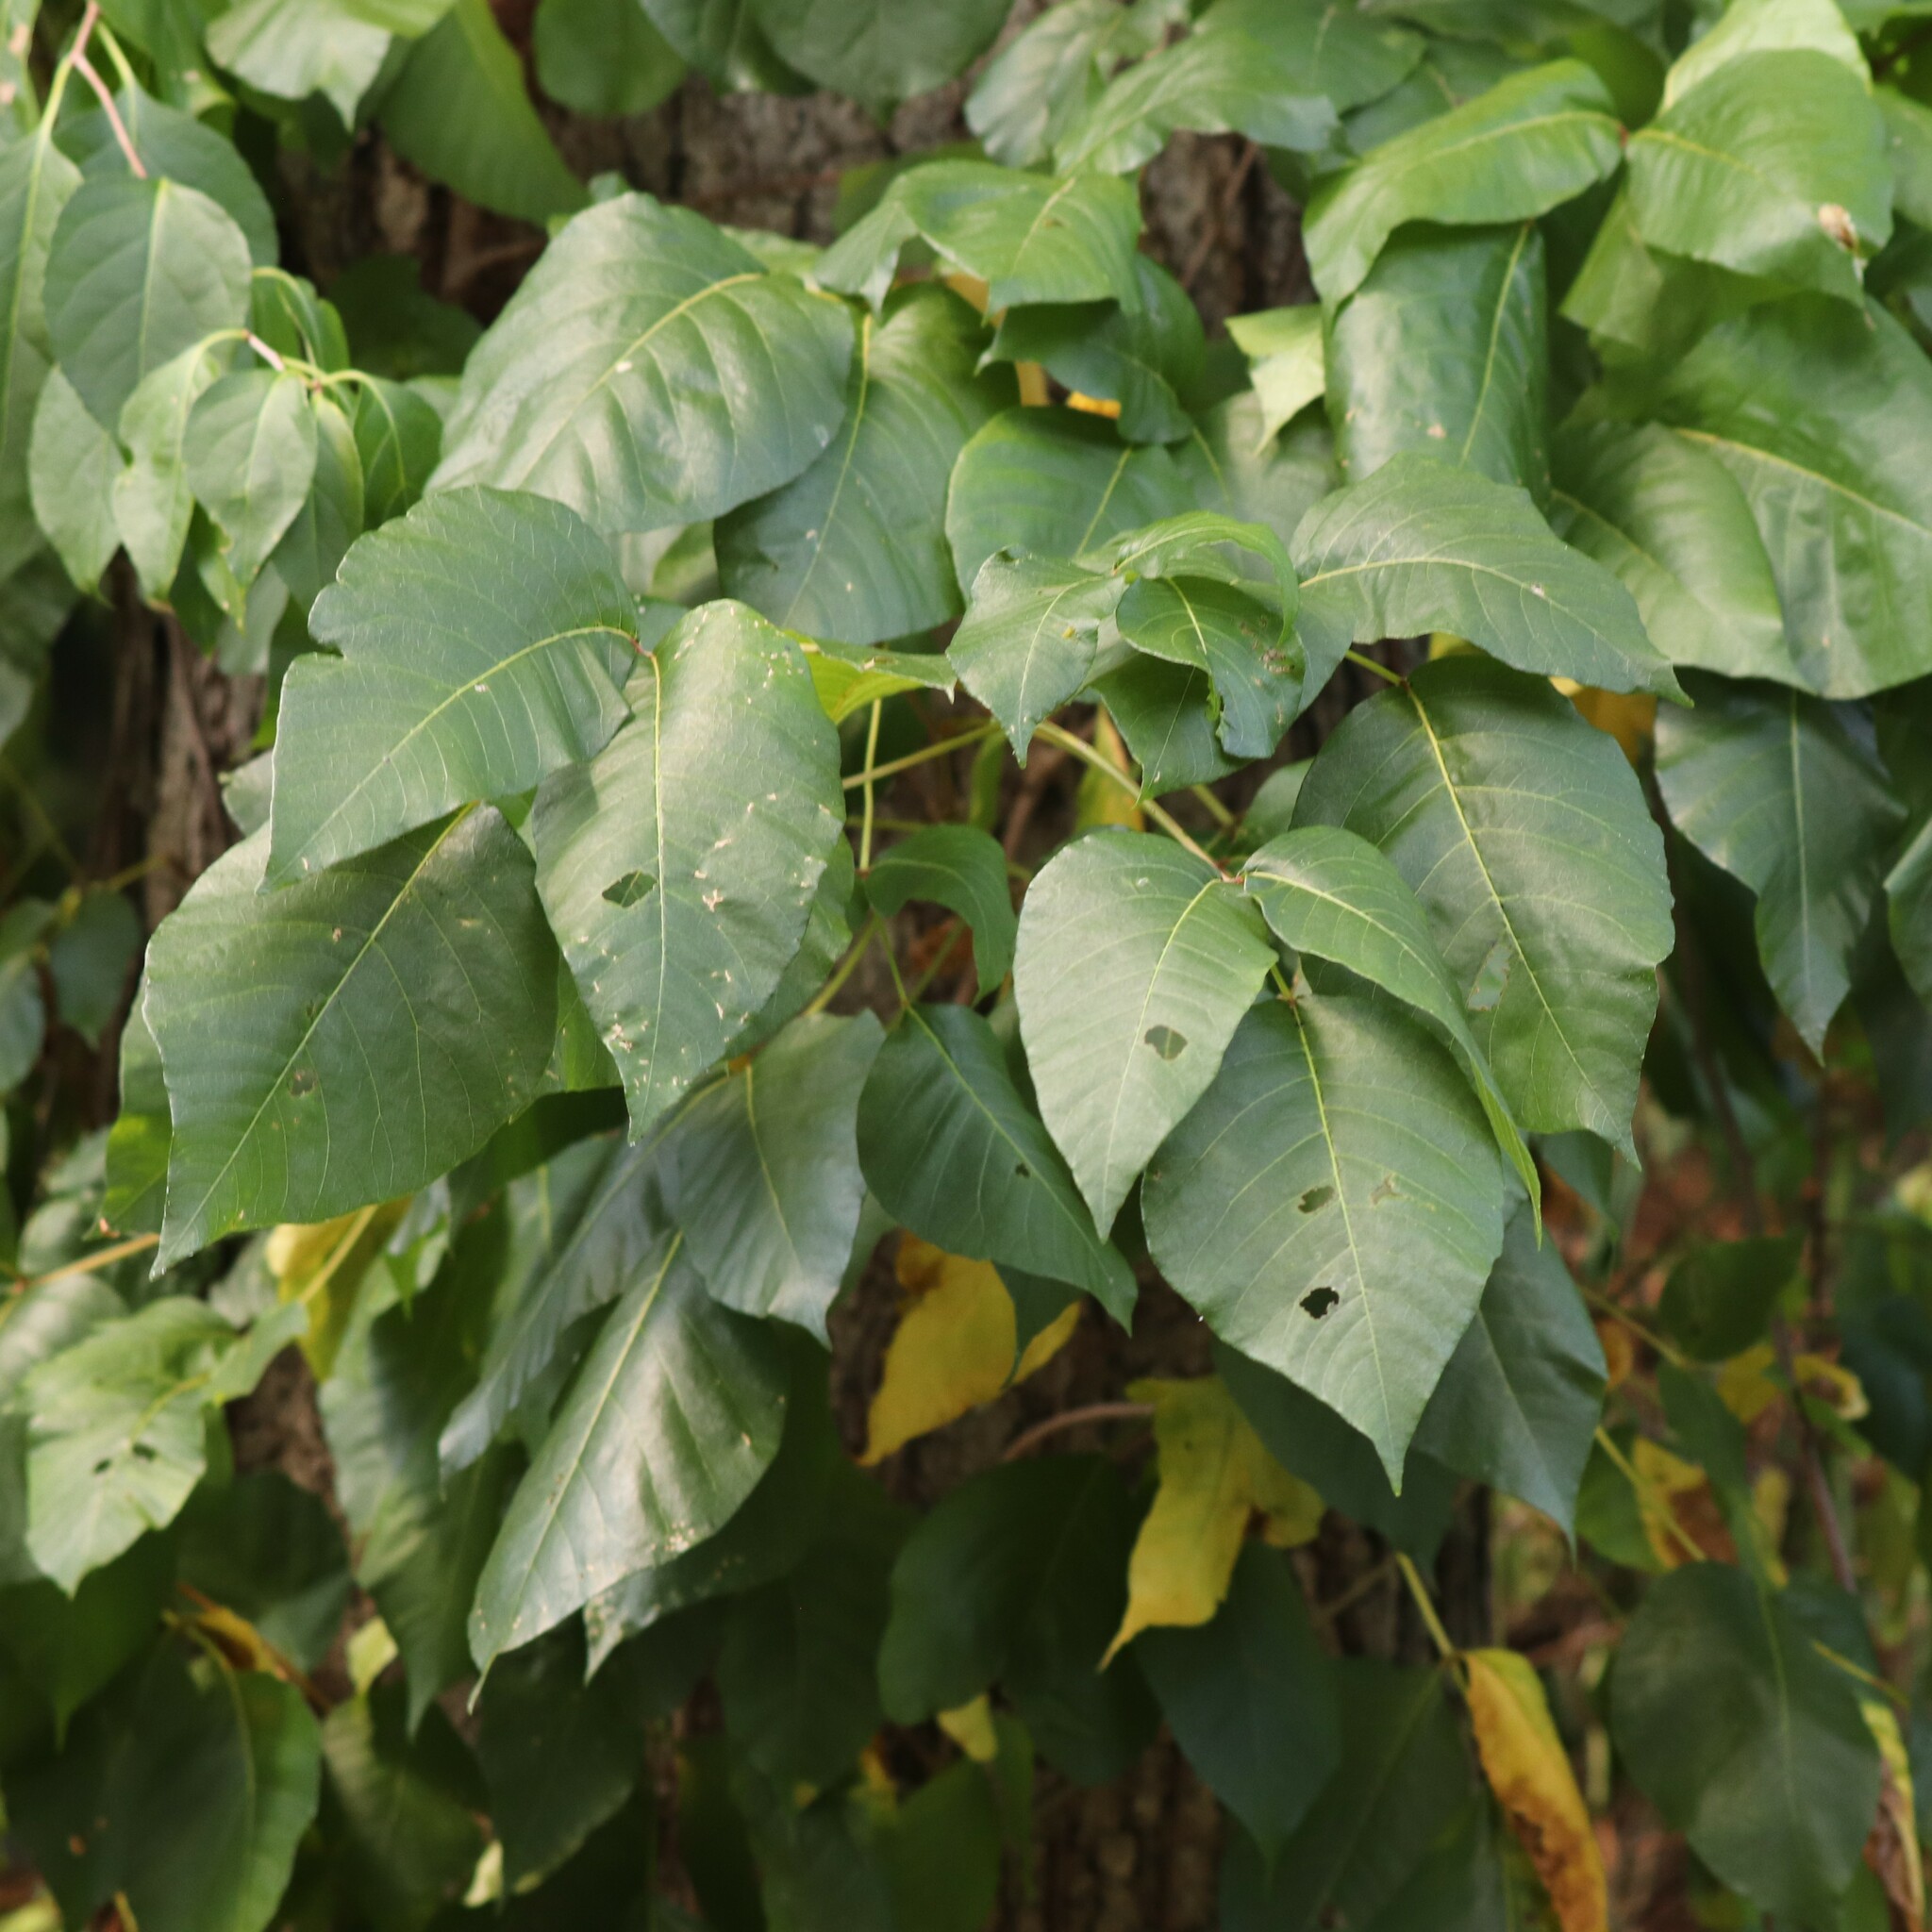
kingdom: Plantae
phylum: Tracheophyta
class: Magnoliopsida
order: Sapindales
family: Anacardiaceae
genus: Toxicodendron
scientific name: Toxicodendron radicans
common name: Poison ivy
